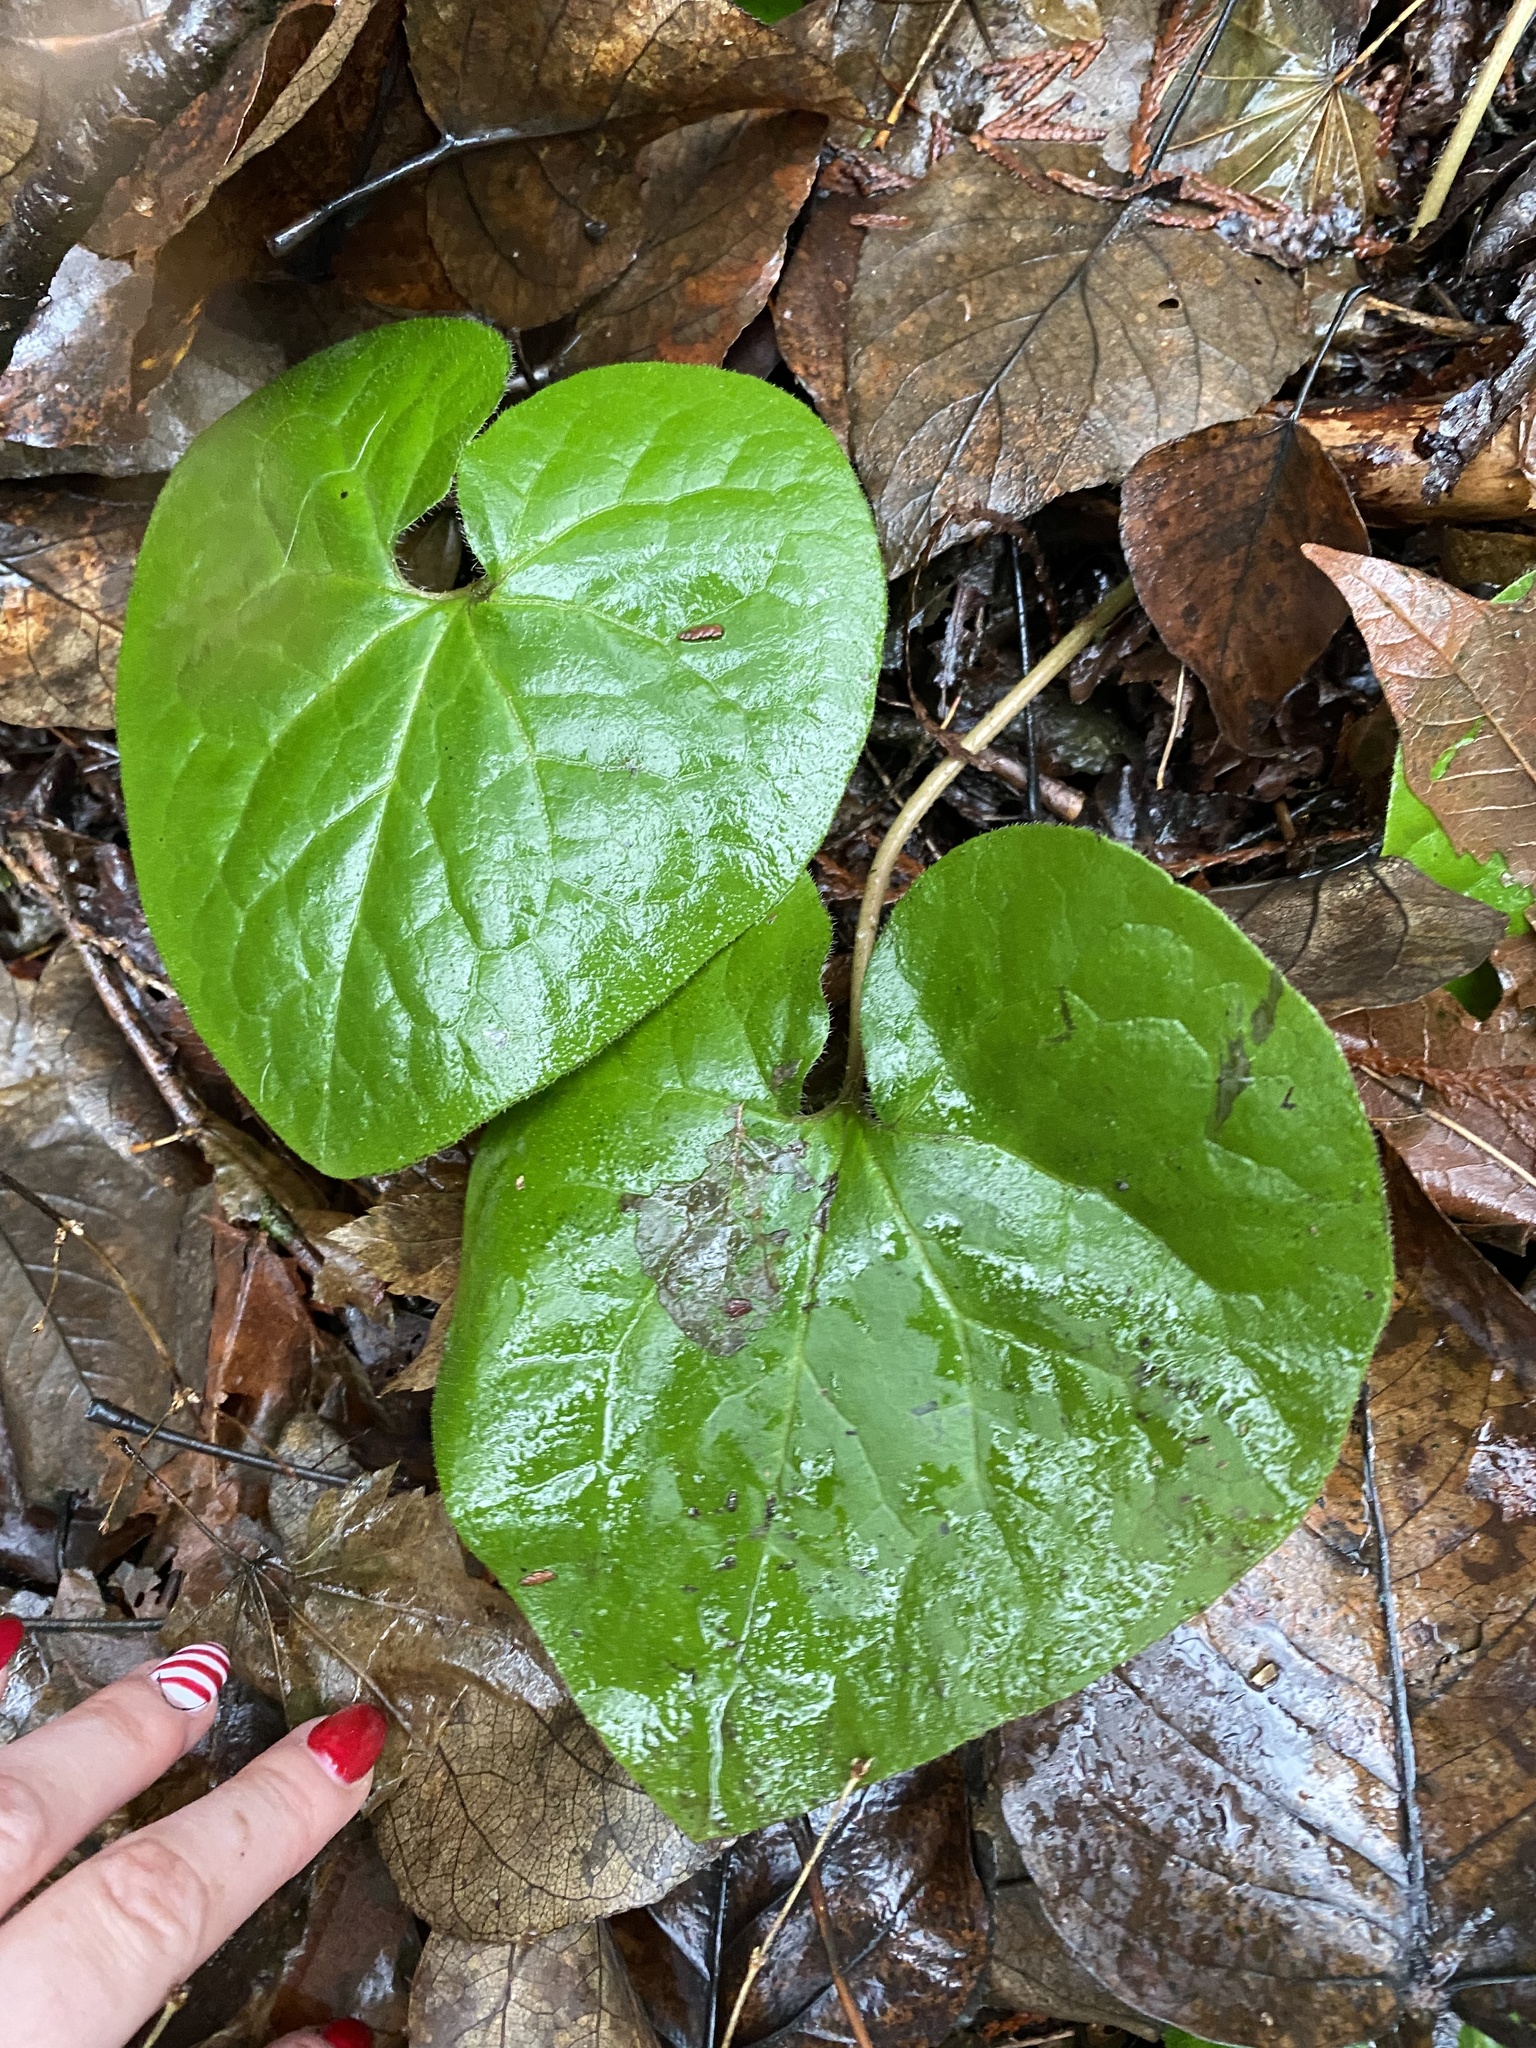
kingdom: Plantae
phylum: Tracheophyta
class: Magnoliopsida
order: Piperales
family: Aristolochiaceae
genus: Asarum
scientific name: Asarum caudatum
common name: Wild ginger
